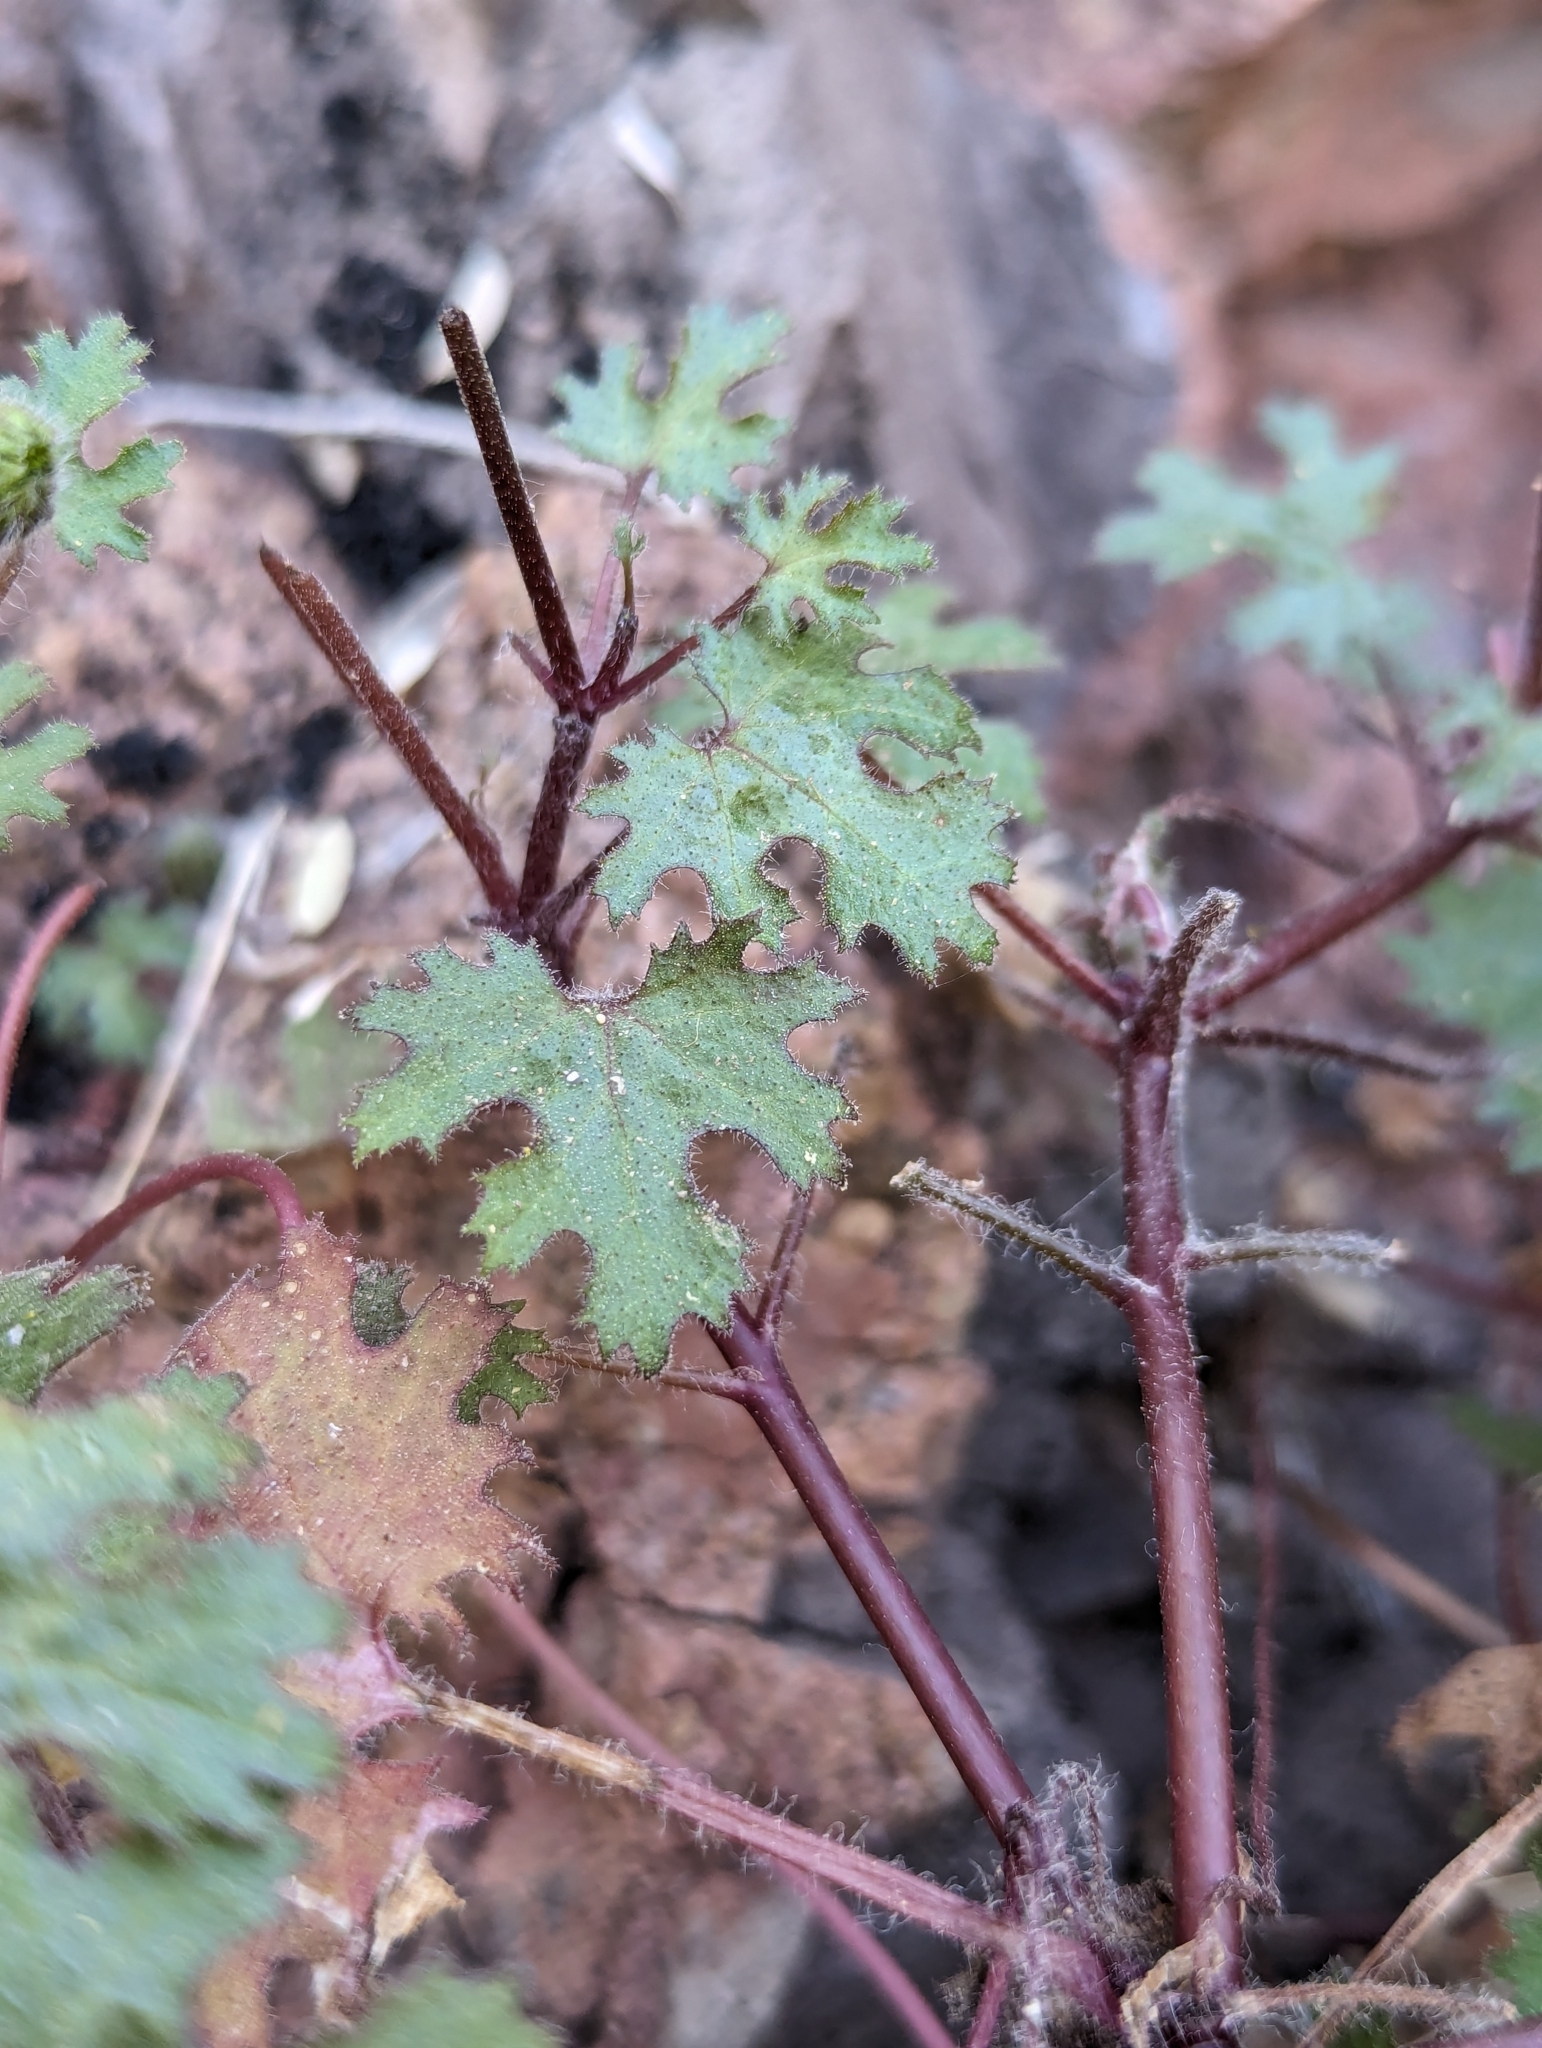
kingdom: Plantae
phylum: Tracheophyta
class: Magnoliopsida
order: Asterales
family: Asteraceae
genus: Laphamia
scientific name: Laphamia lobata
